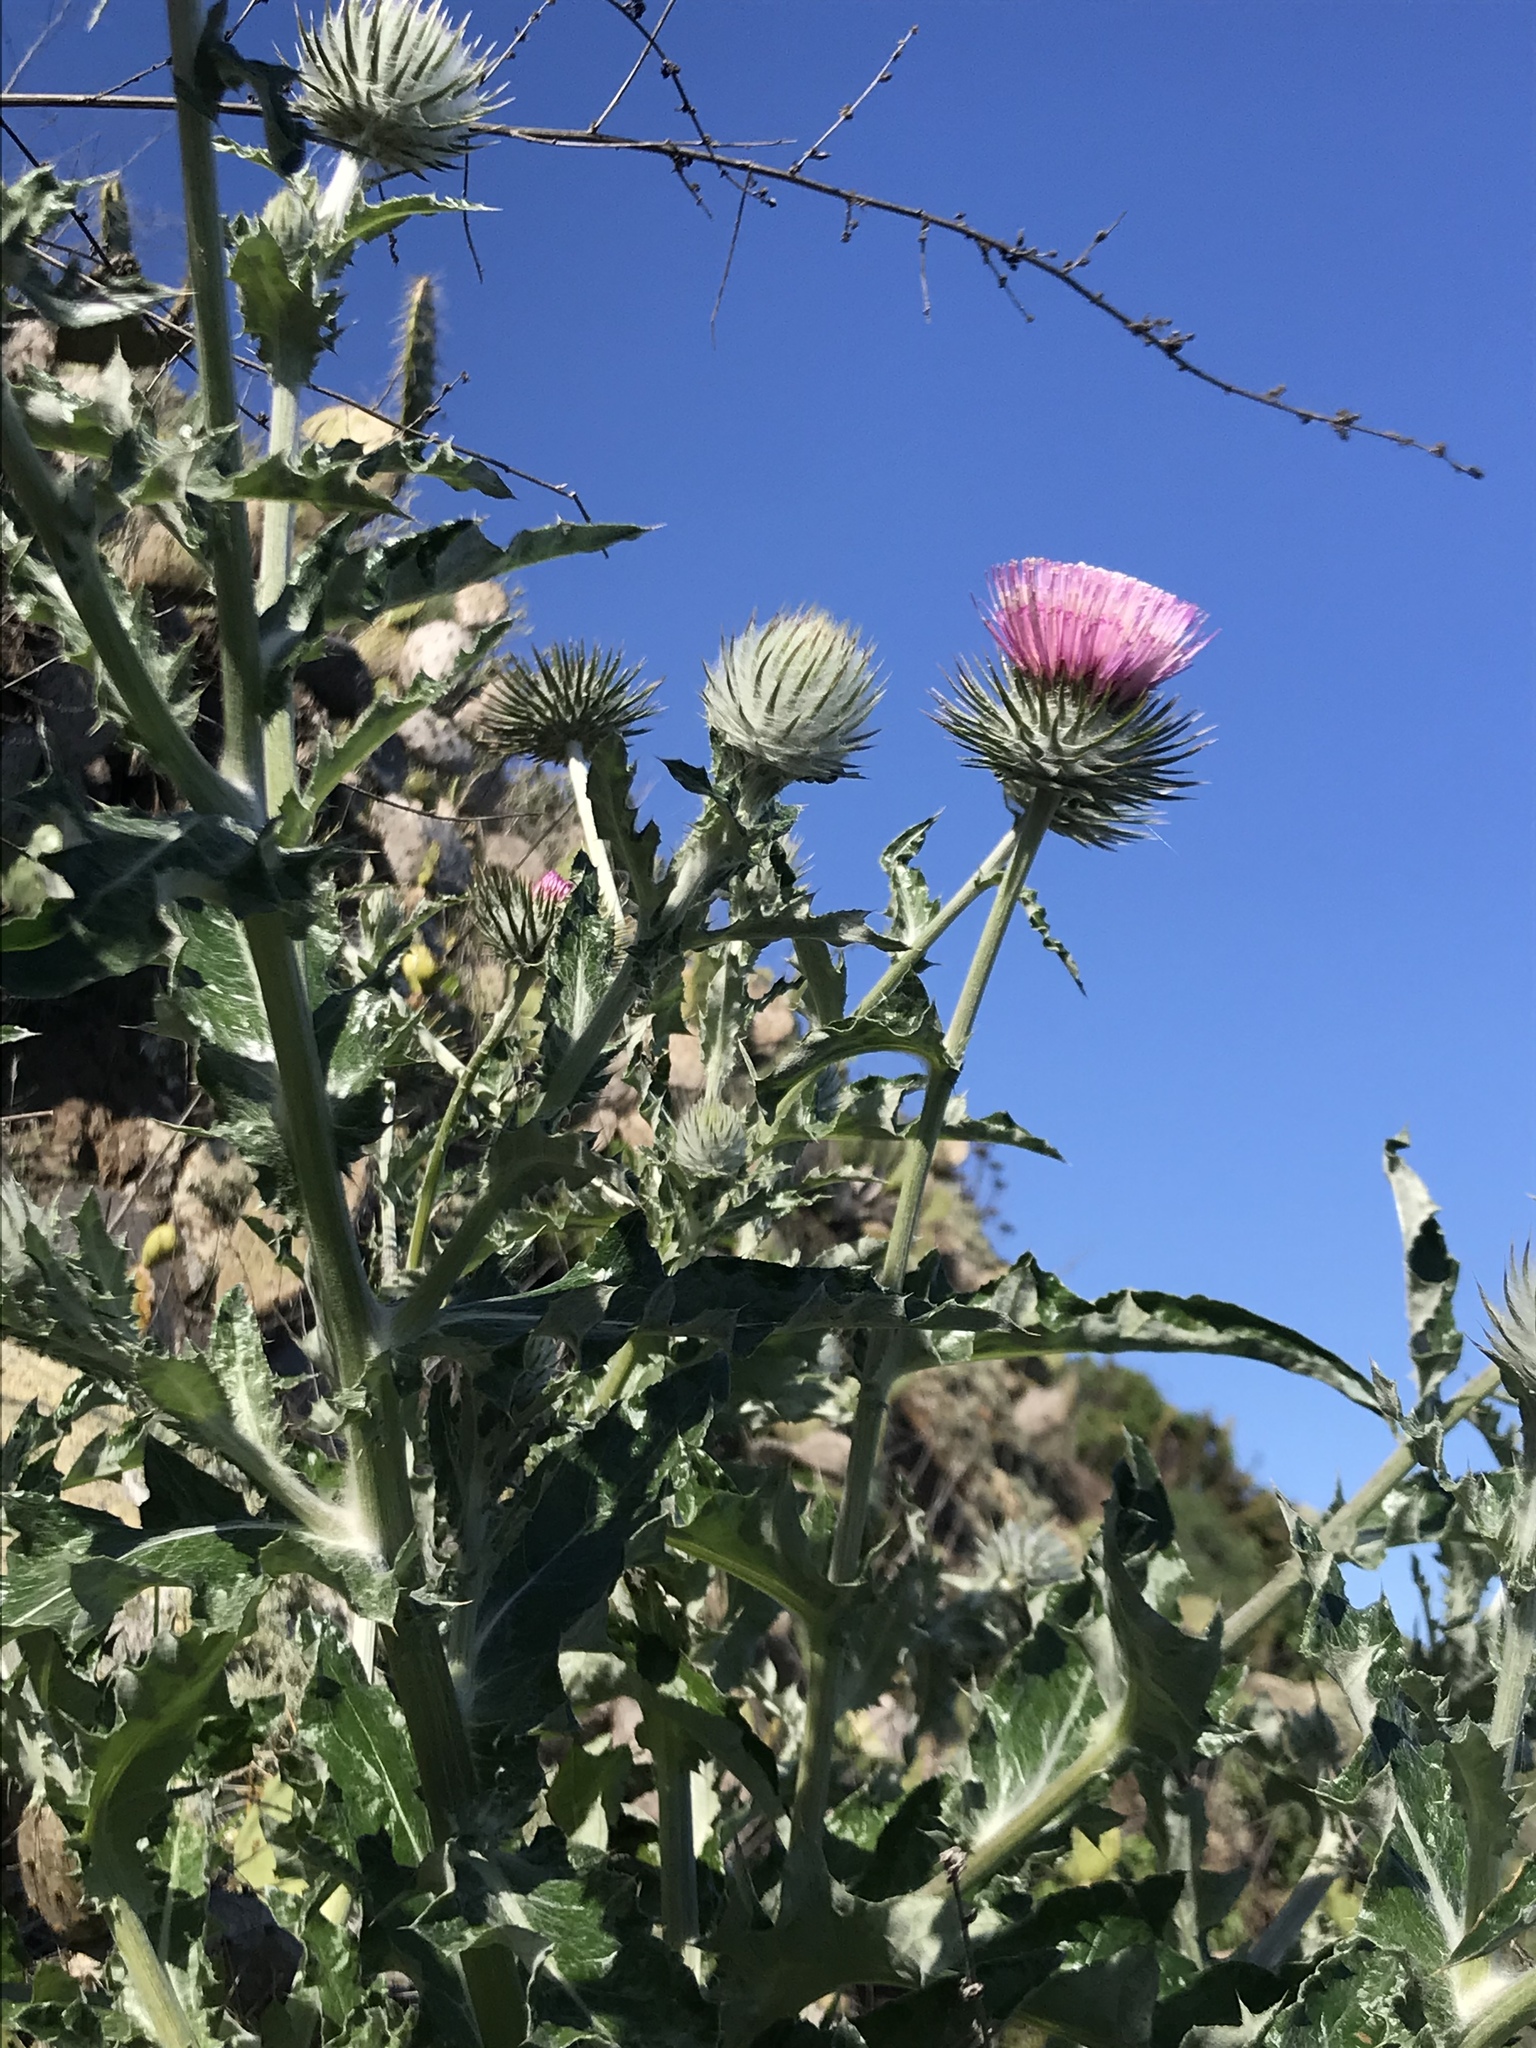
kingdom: Plantae
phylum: Tracheophyta
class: Magnoliopsida
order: Asterales
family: Asteraceae
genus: Cirsium
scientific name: Cirsium occidentale
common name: Western thistle
